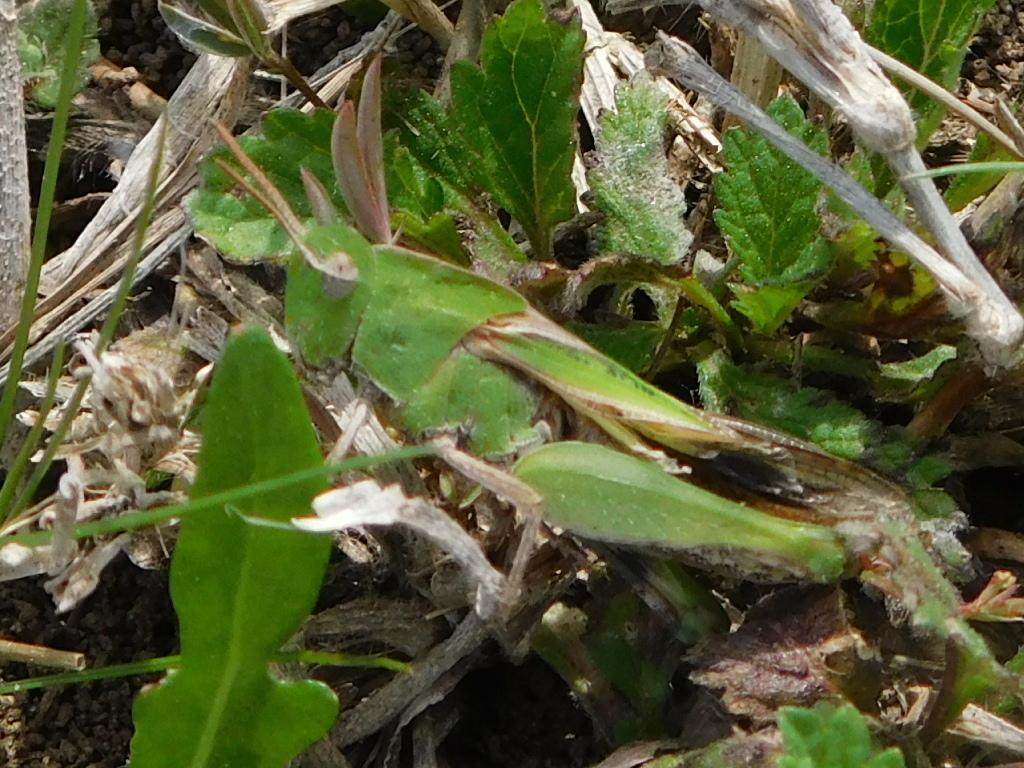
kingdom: Animalia
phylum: Arthropoda
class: Insecta
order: Orthoptera
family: Acrididae
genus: Chortophaga
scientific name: Chortophaga viridifasciata
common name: Green-striped grasshopper
